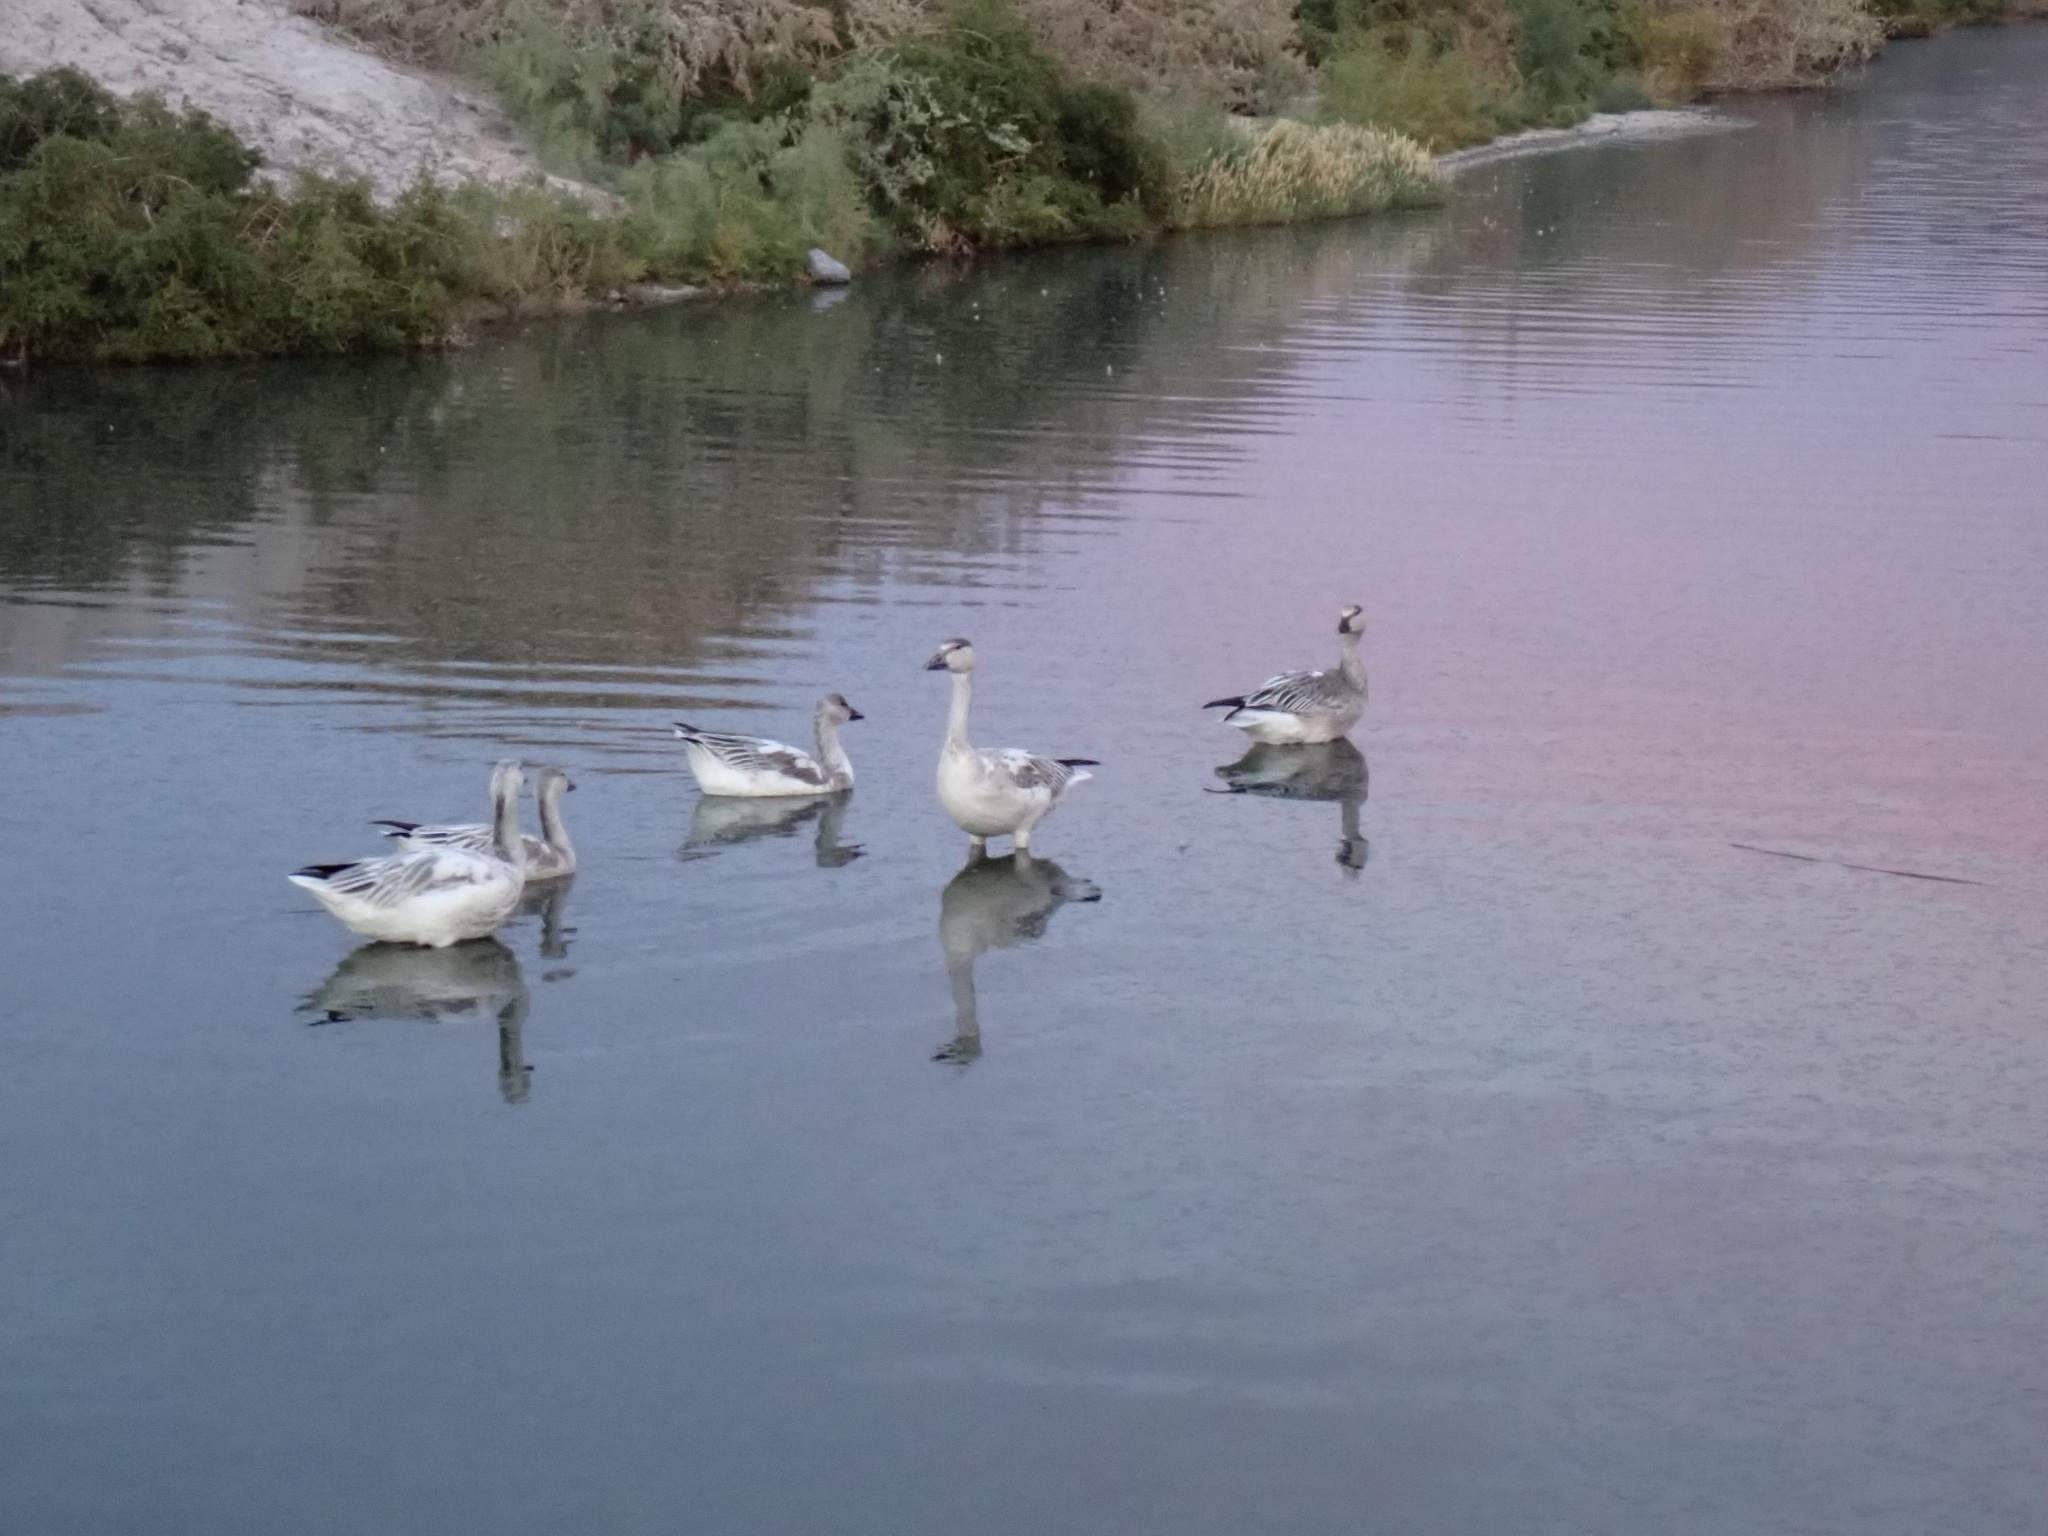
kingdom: Animalia
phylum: Chordata
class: Aves
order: Anseriformes
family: Anatidae
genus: Anser
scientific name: Anser caerulescens
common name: Snow goose
